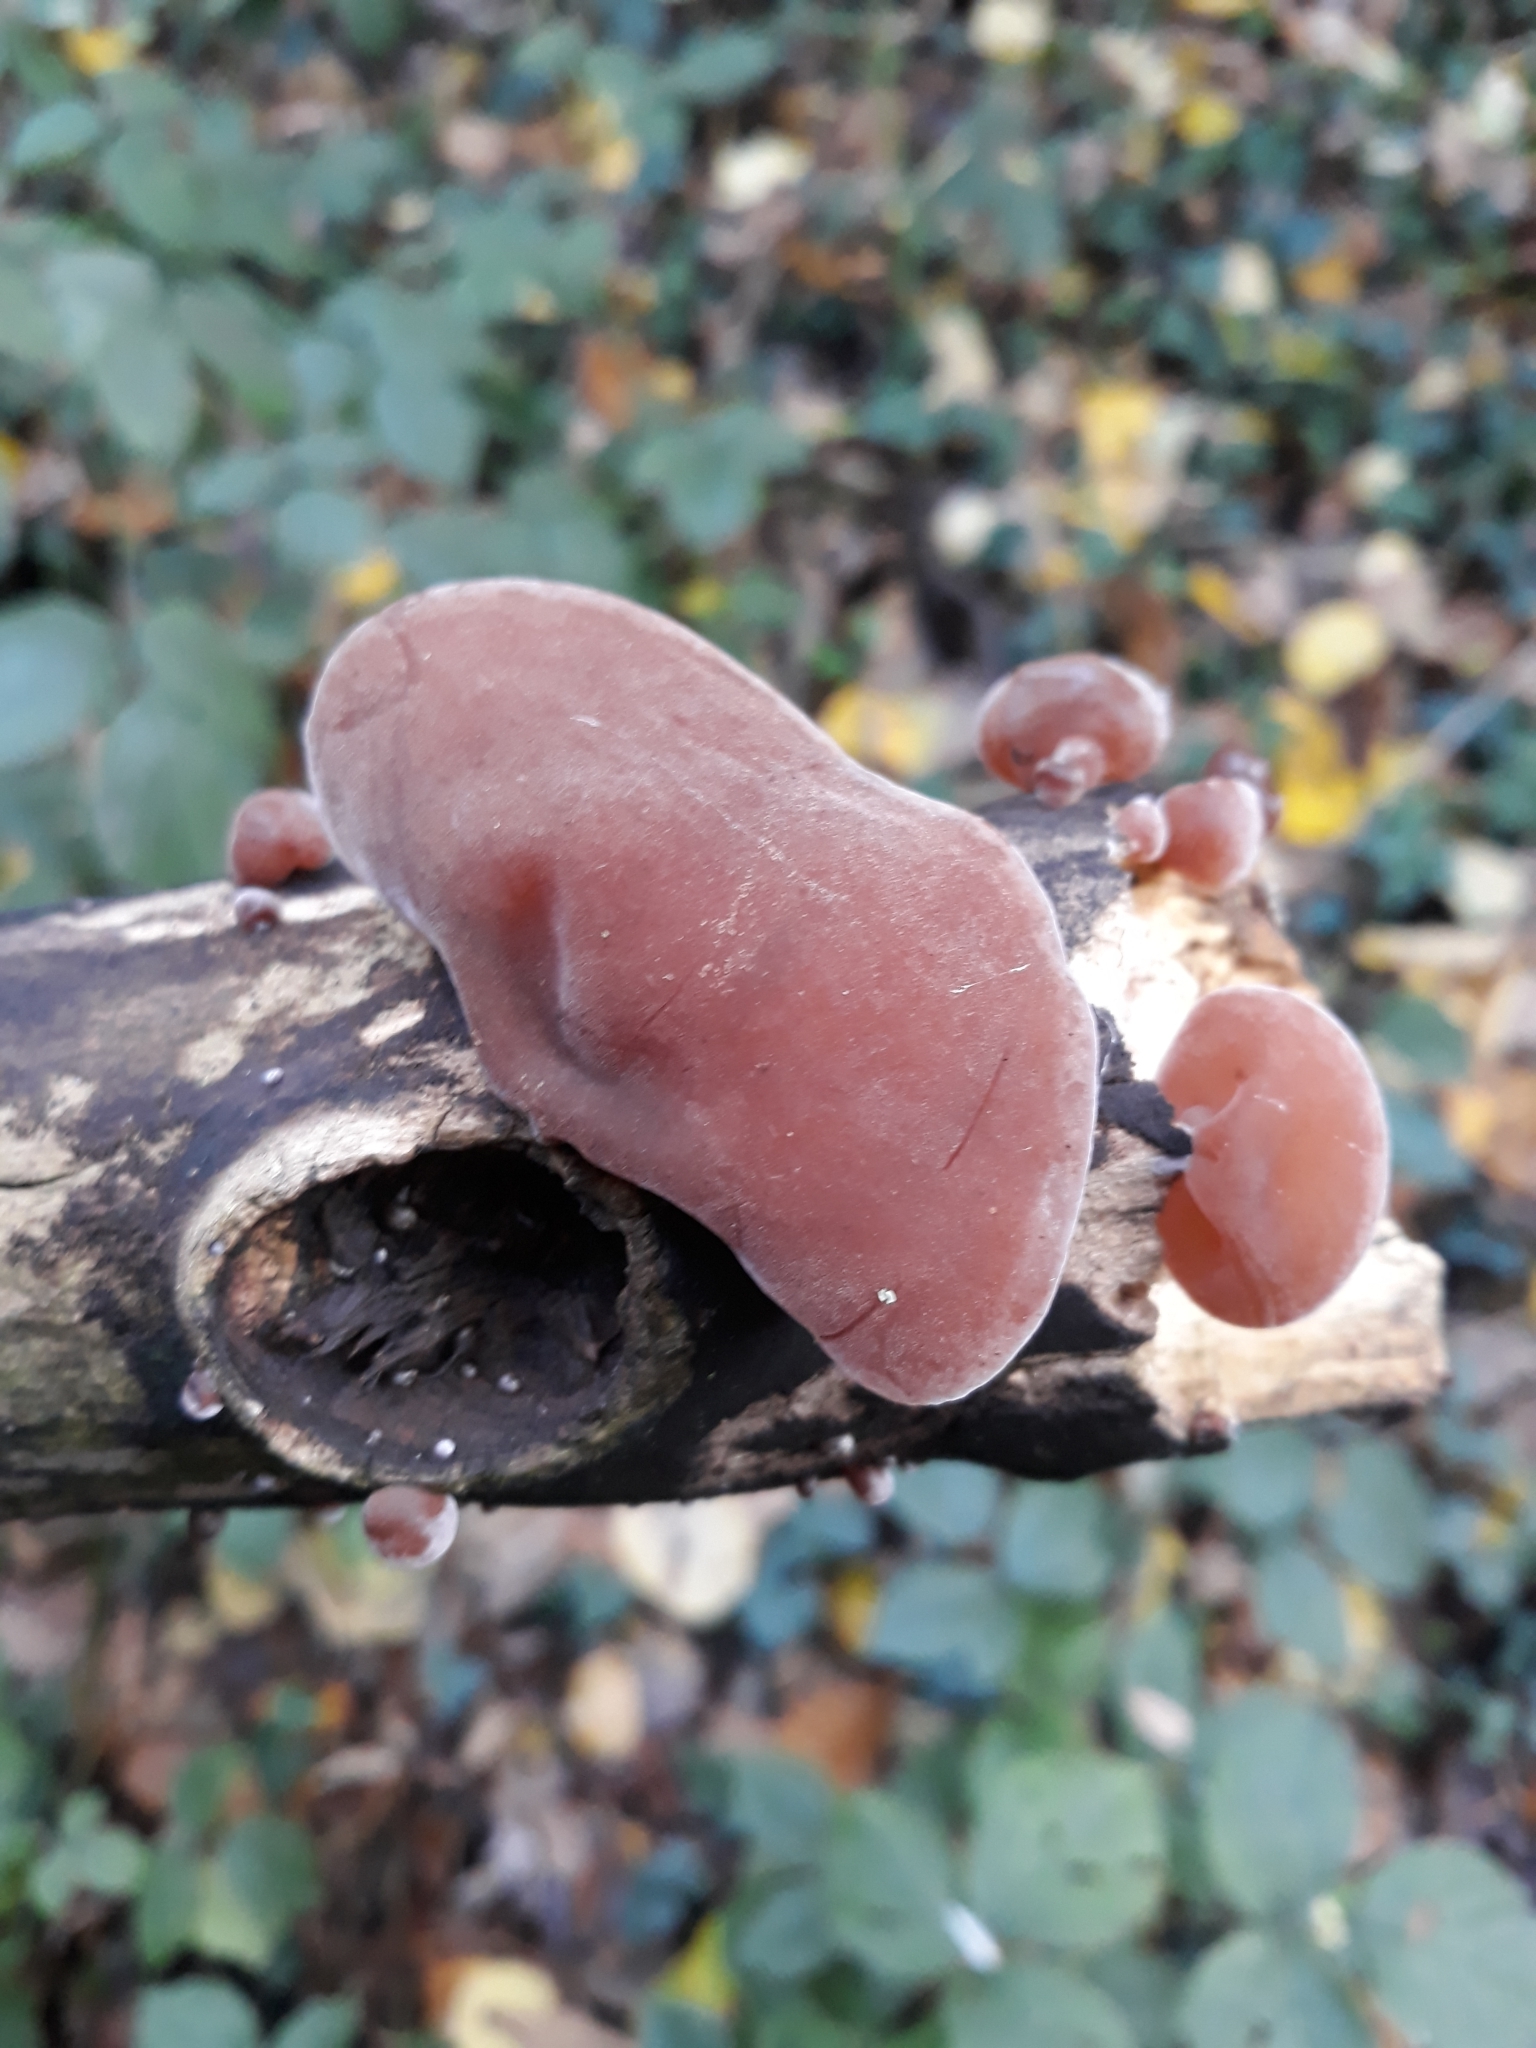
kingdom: Fungi
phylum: Basidiomycota
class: Agaricomycetes
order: Auriculariales
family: Auriculariaceae
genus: Auricularia
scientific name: Auricularia auricula-judae
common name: Jelly ear
